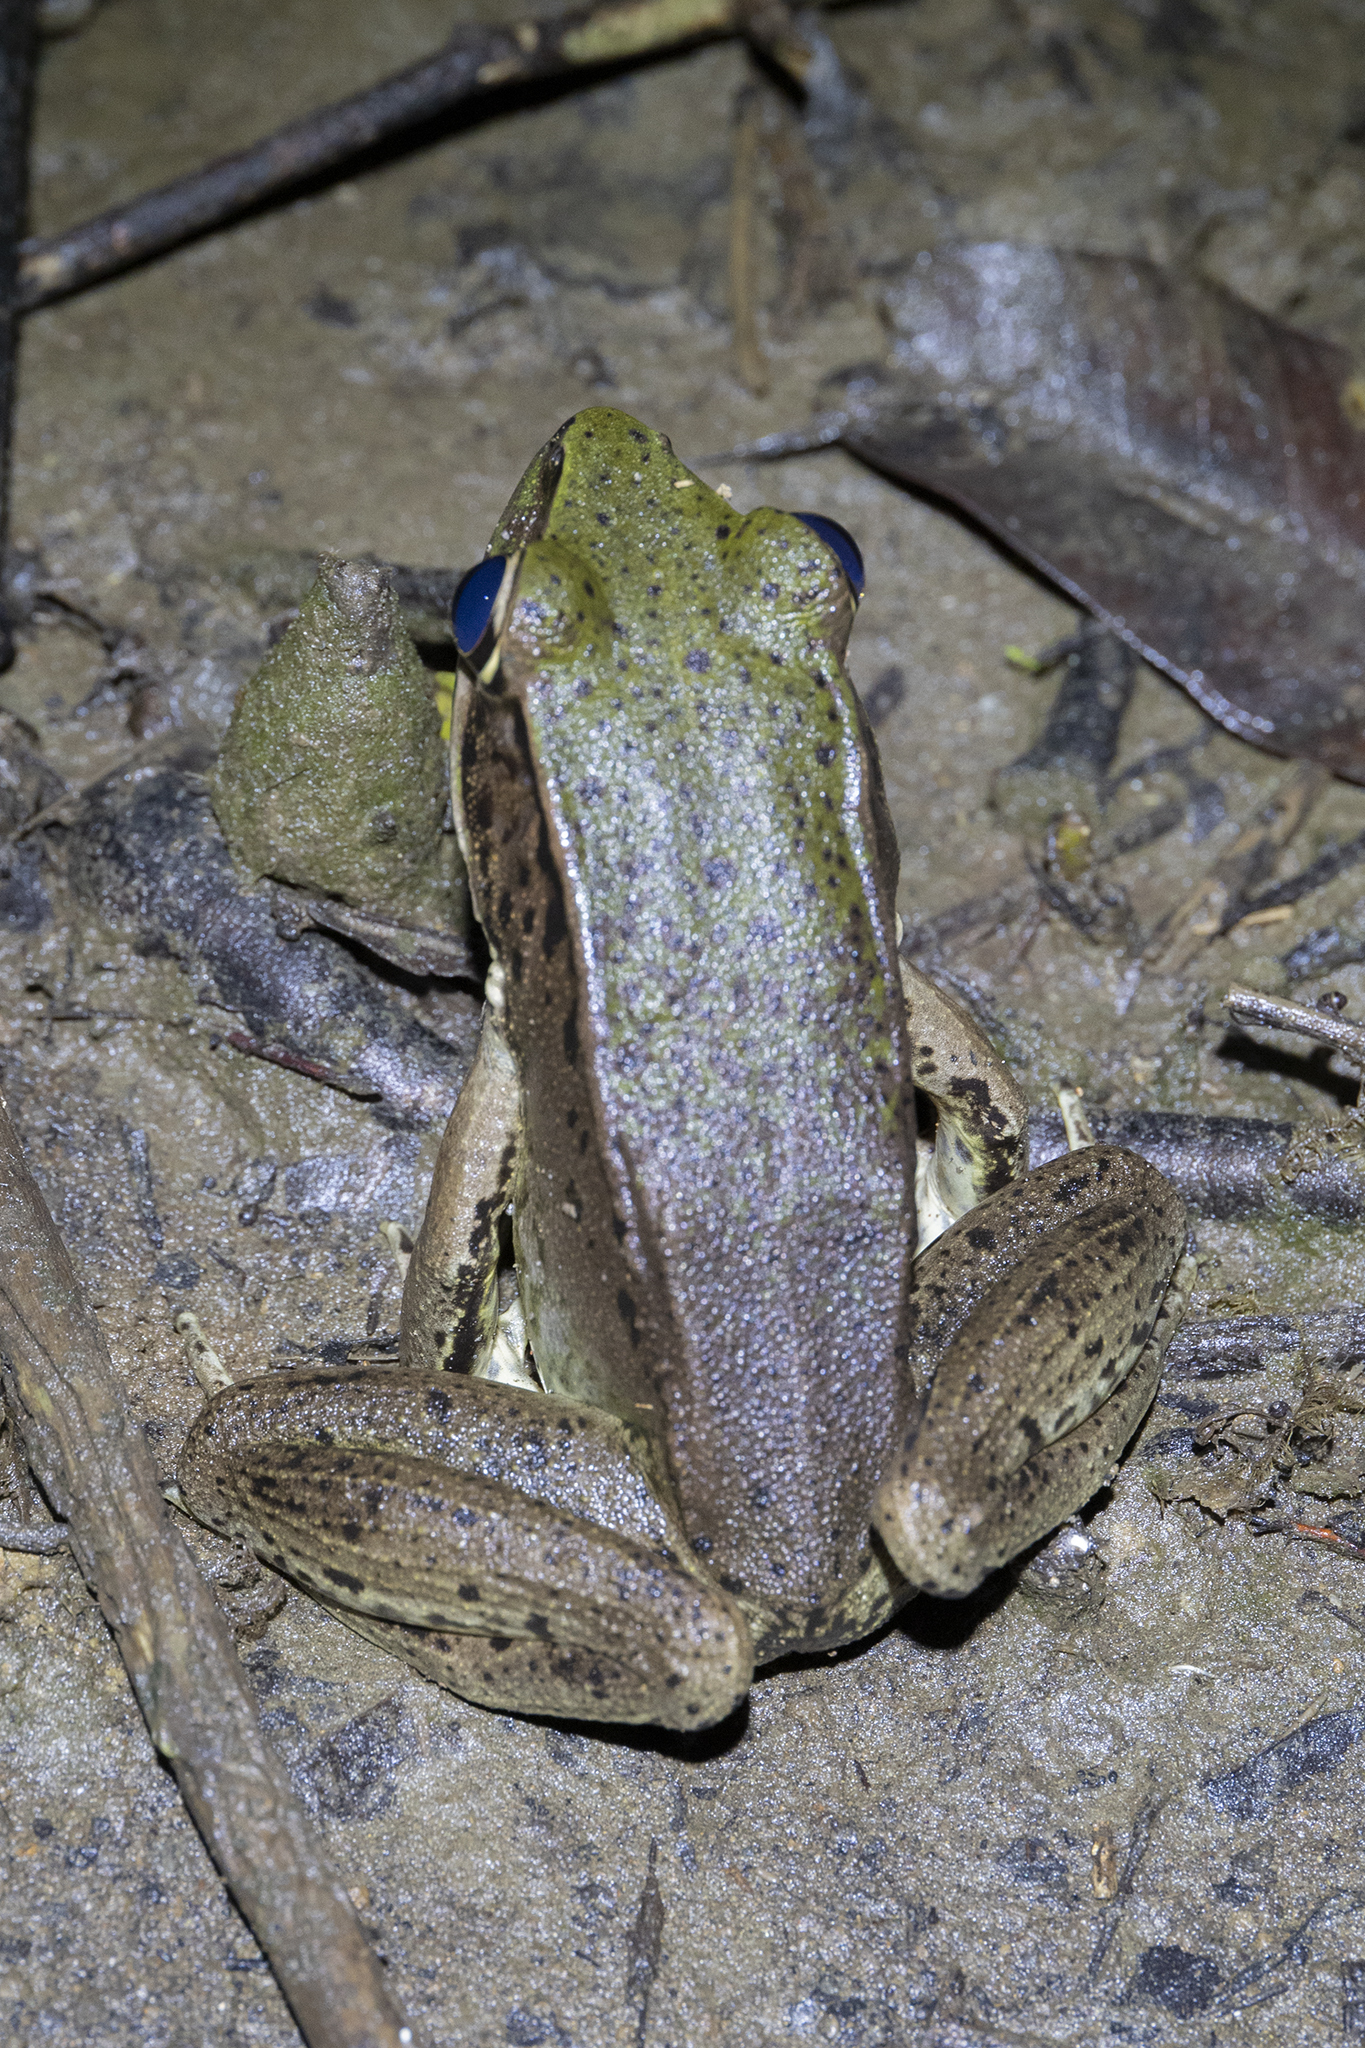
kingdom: Animalia
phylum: Chordata
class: Amphibia
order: Anura
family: Ranidae
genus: Lithobates
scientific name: Lithobates vaillanti
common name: Vaillant's frog
